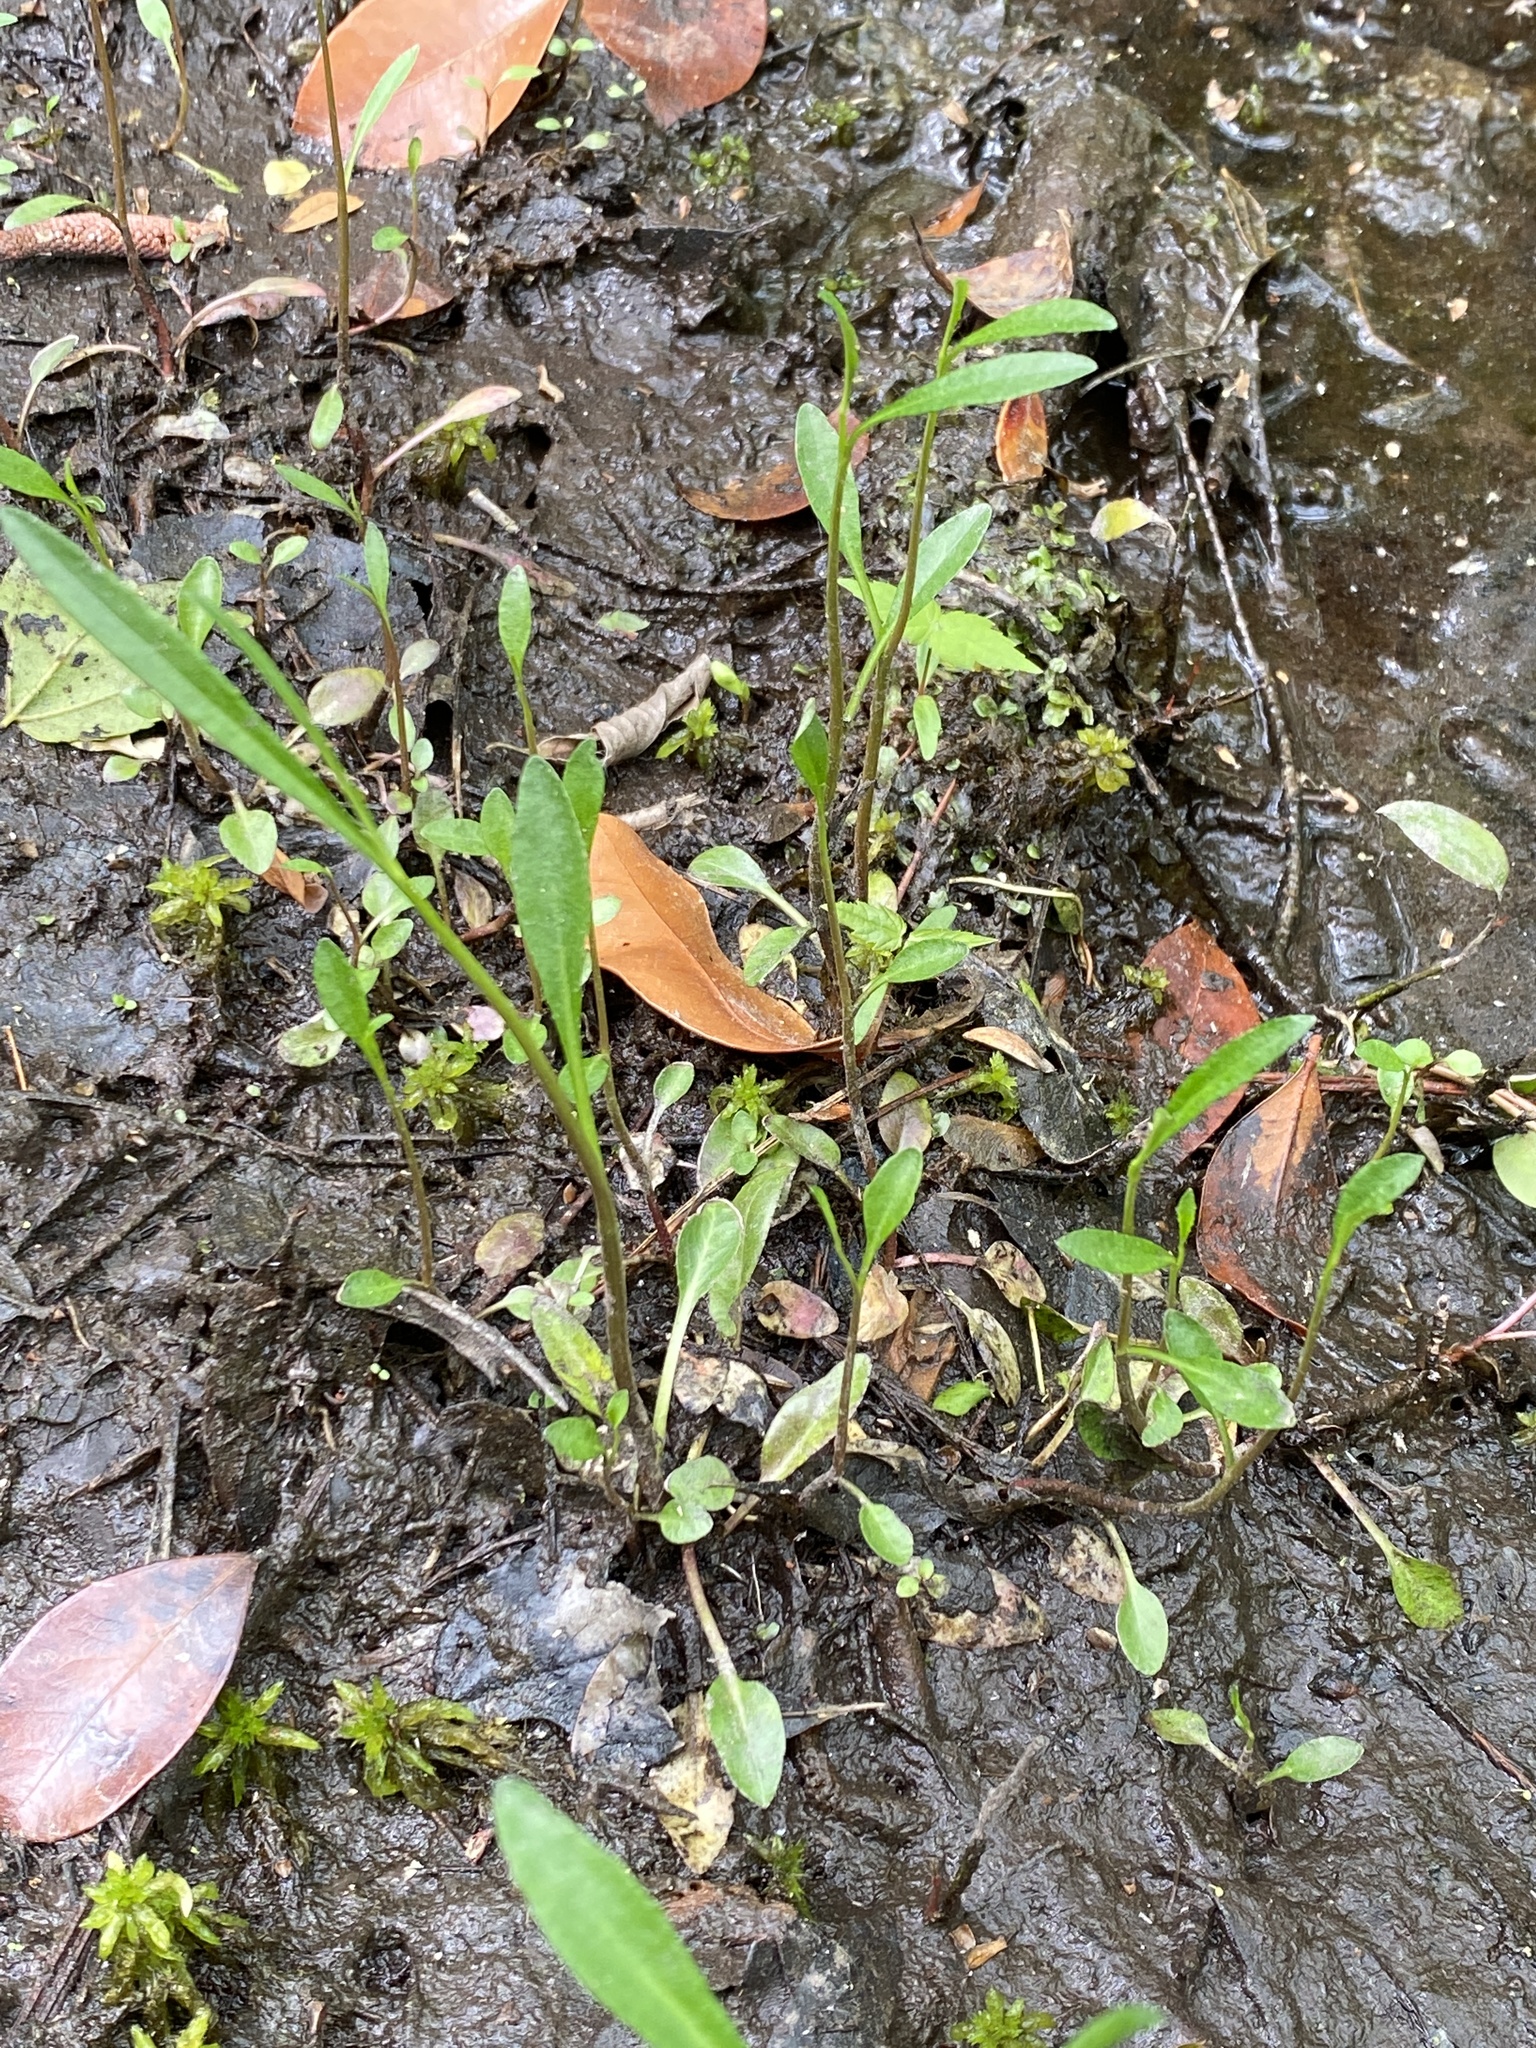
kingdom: Plantae
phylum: Tracheophyta
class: Magnoliopsida
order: Asterales
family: Campanulaceae
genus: Lobelia
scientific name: Lobelia batsonii
